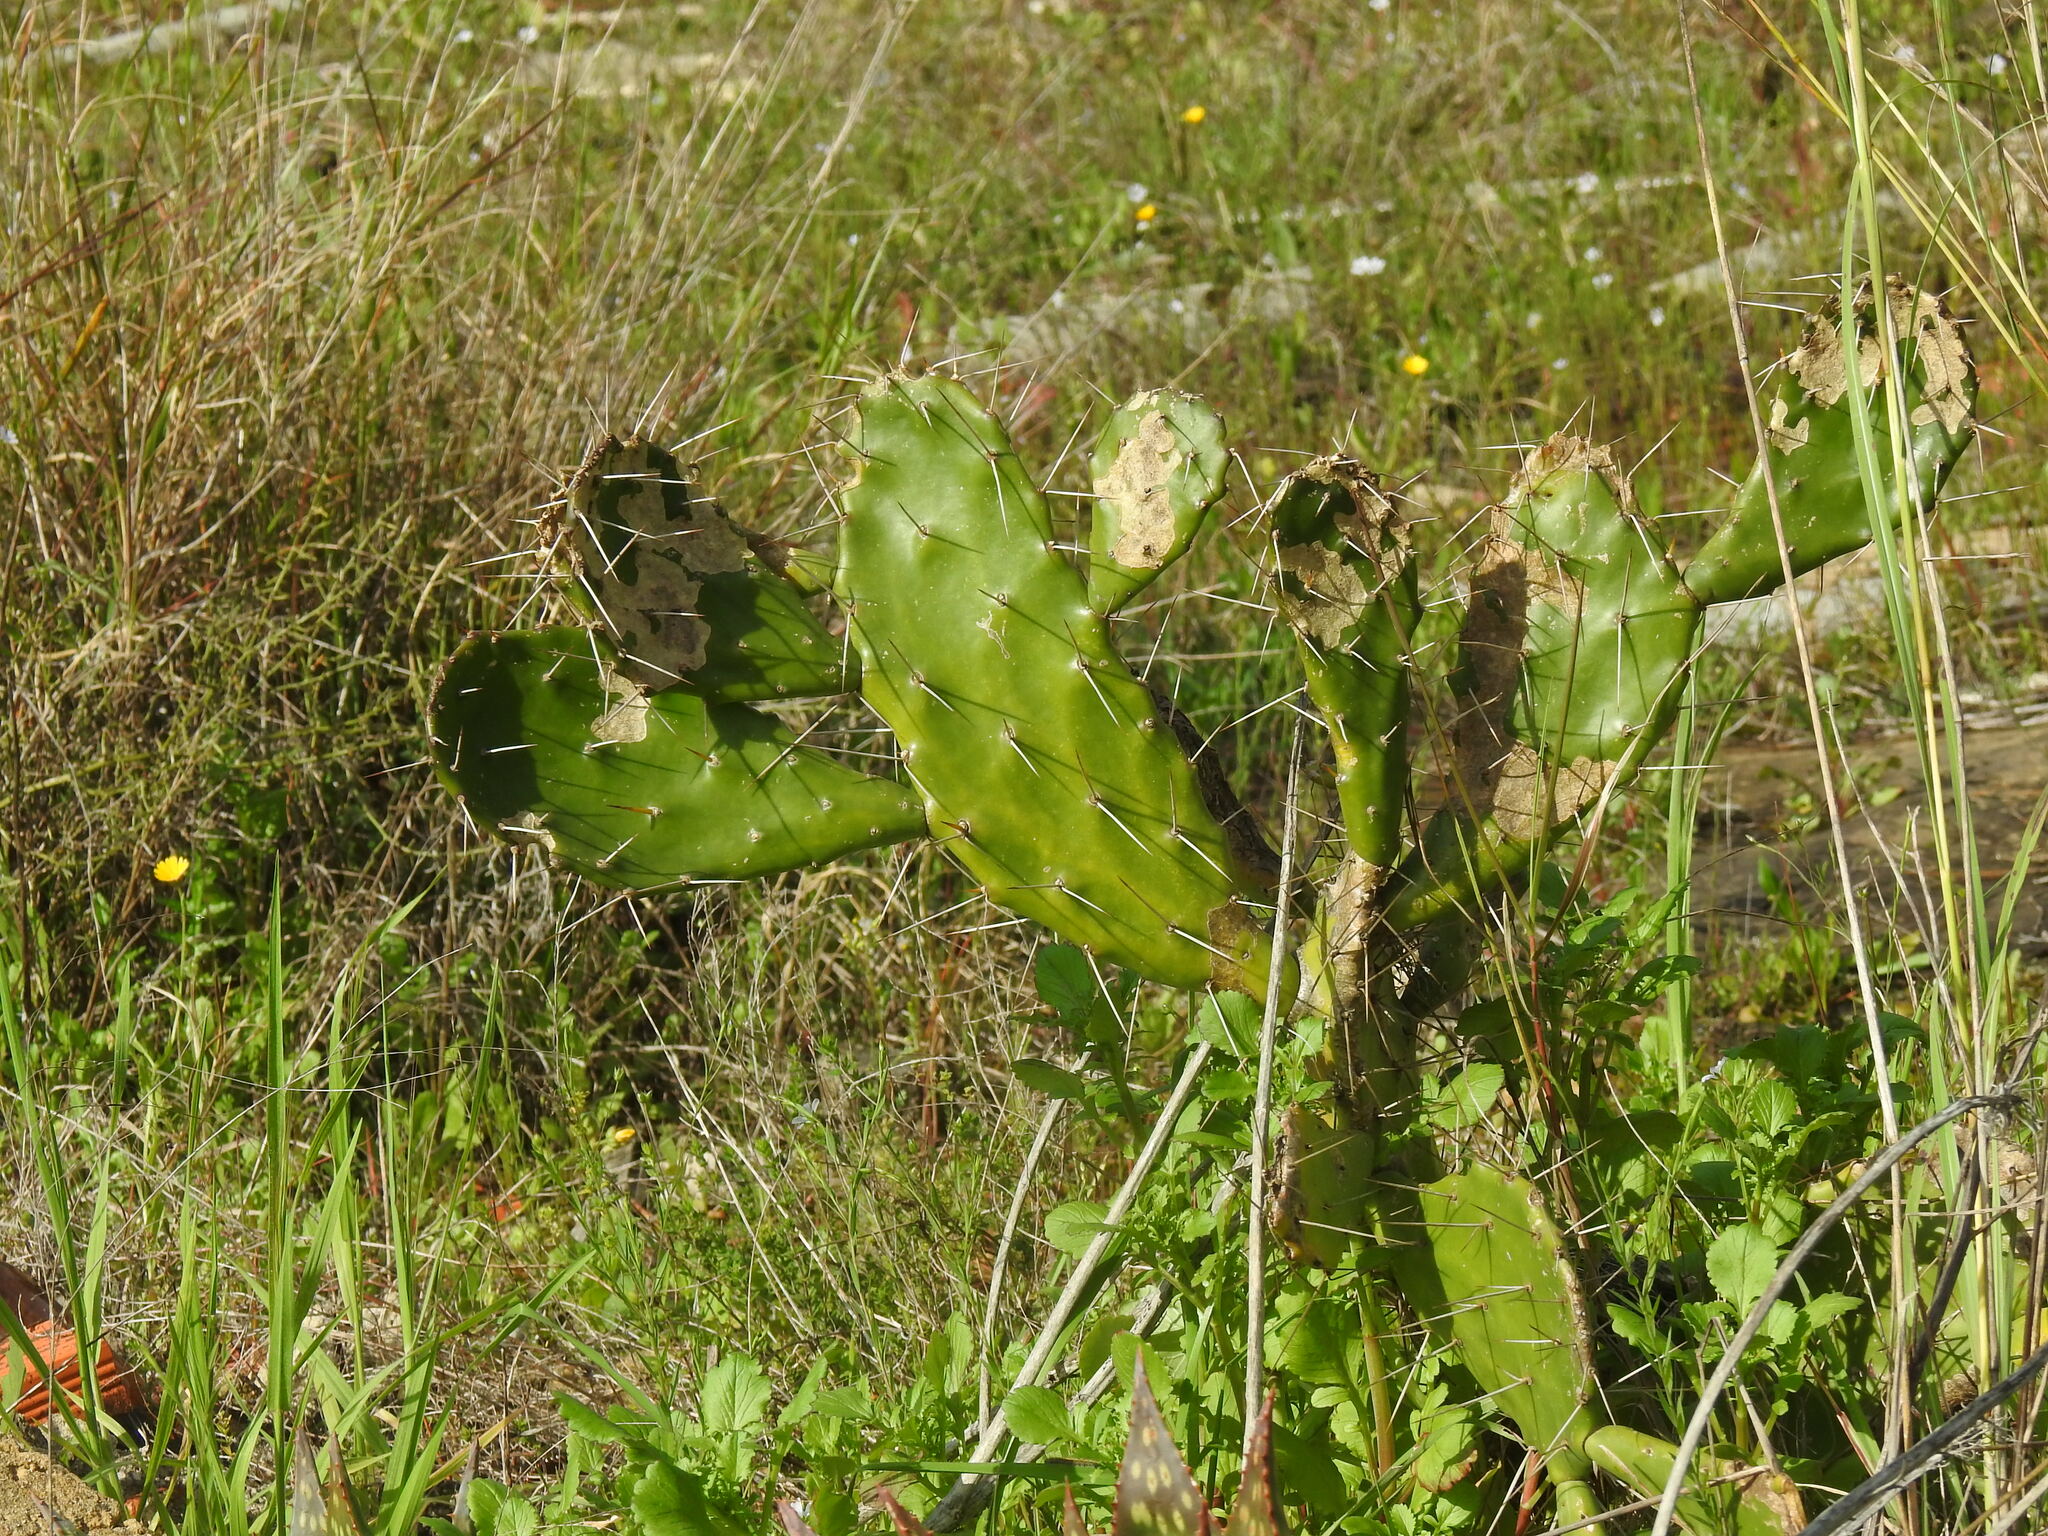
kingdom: Plantae
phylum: Tracheophyta
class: Magnoliopsida
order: Caryophyllales
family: Cactaceae
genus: Opuntia
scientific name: Opuntia monacantha
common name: Common pricklypear
